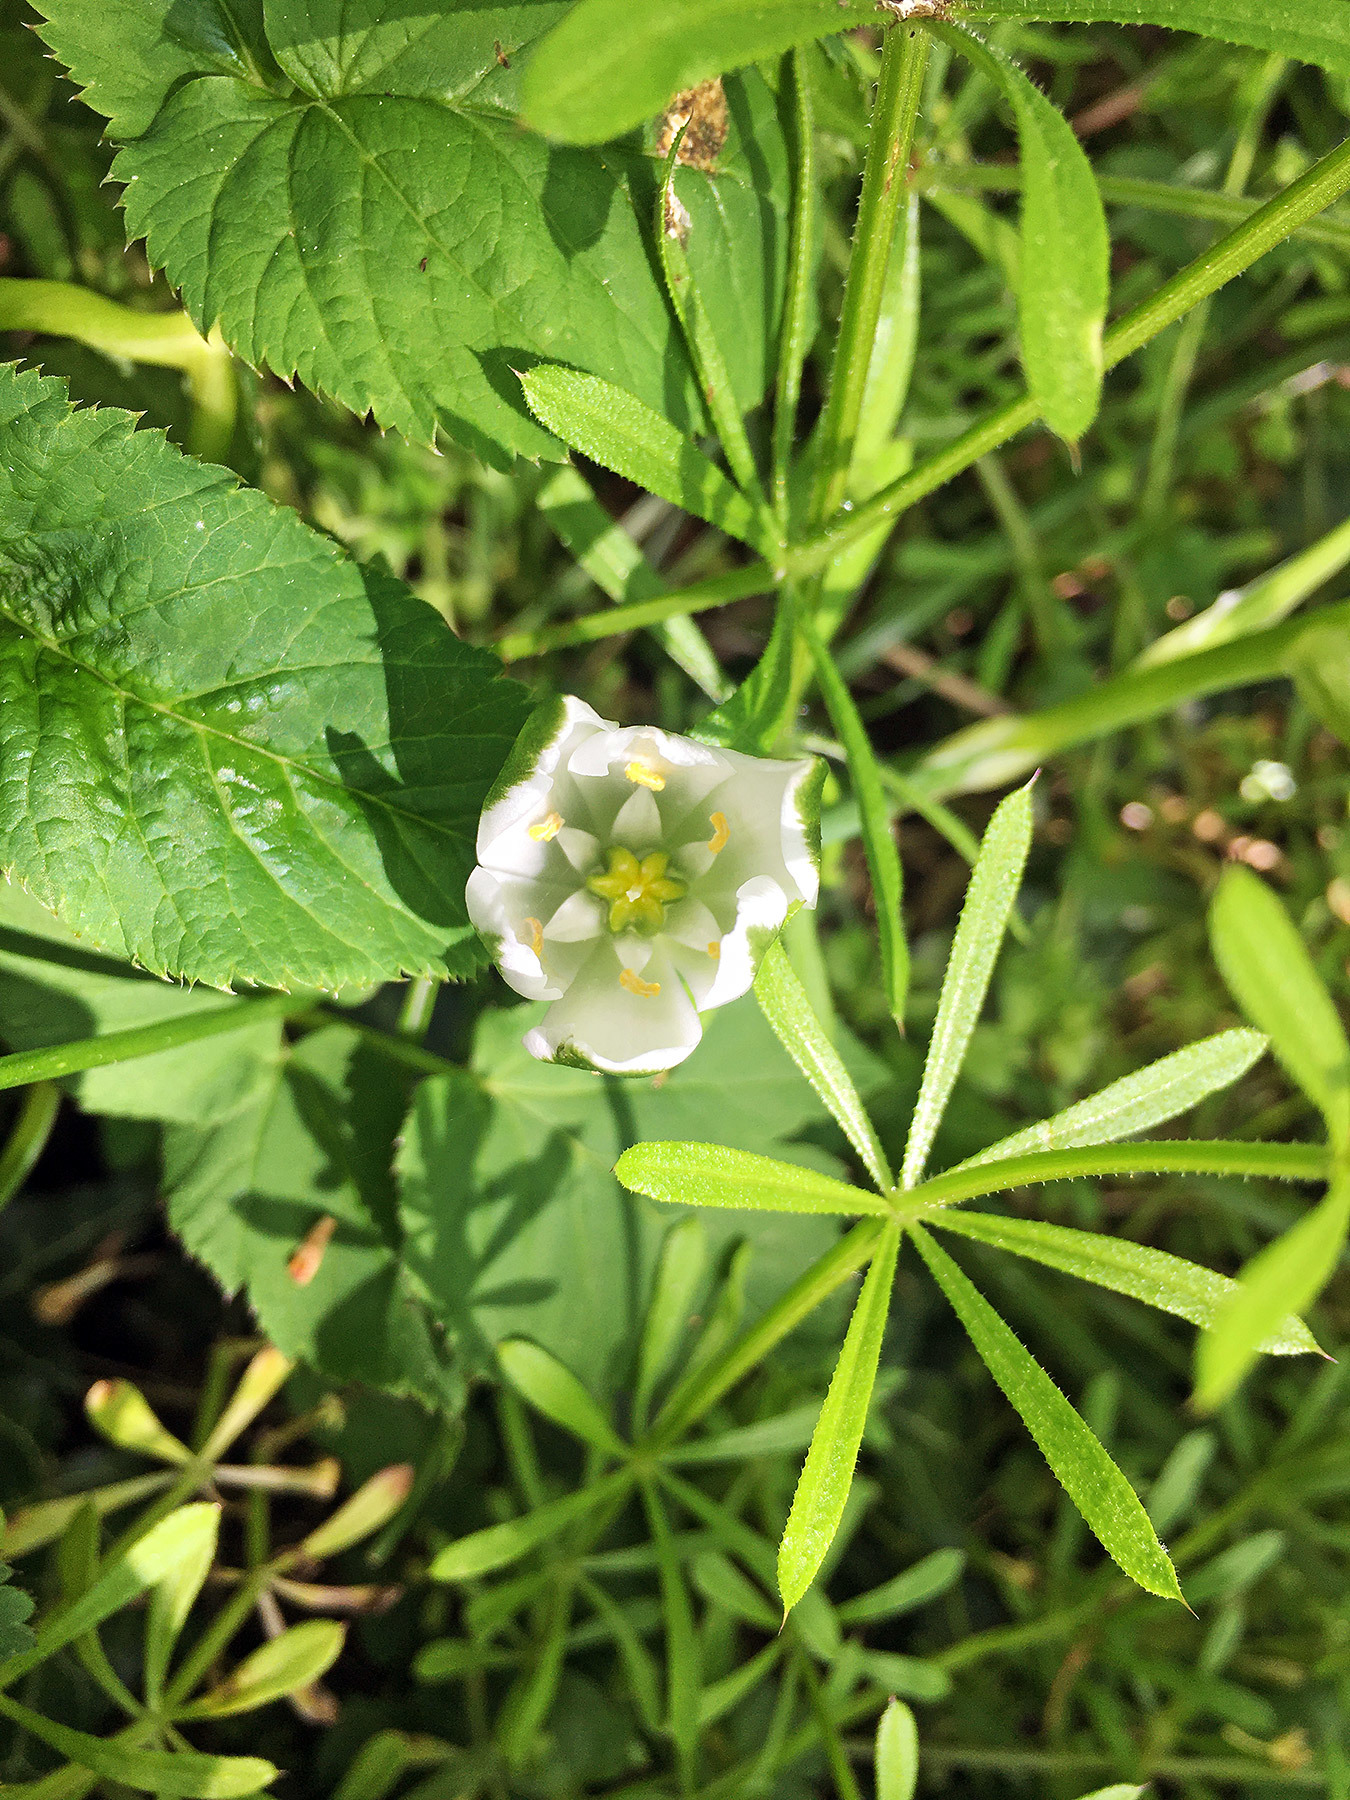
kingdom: Plantae
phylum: Tracheophyta
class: Liliopsida
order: Asparagales
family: Asparagaceae
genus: Ornithogalum
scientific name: Ornithogalum umbellatum
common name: Garden star-of-bethlehem
